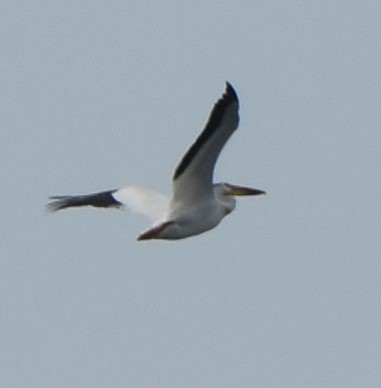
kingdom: Animalia
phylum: Chordata
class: Aves
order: Pelecaniformes
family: Pelecanidae
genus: Pelecanus
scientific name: Pelecanus erythrorhynchos
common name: American white pelican
